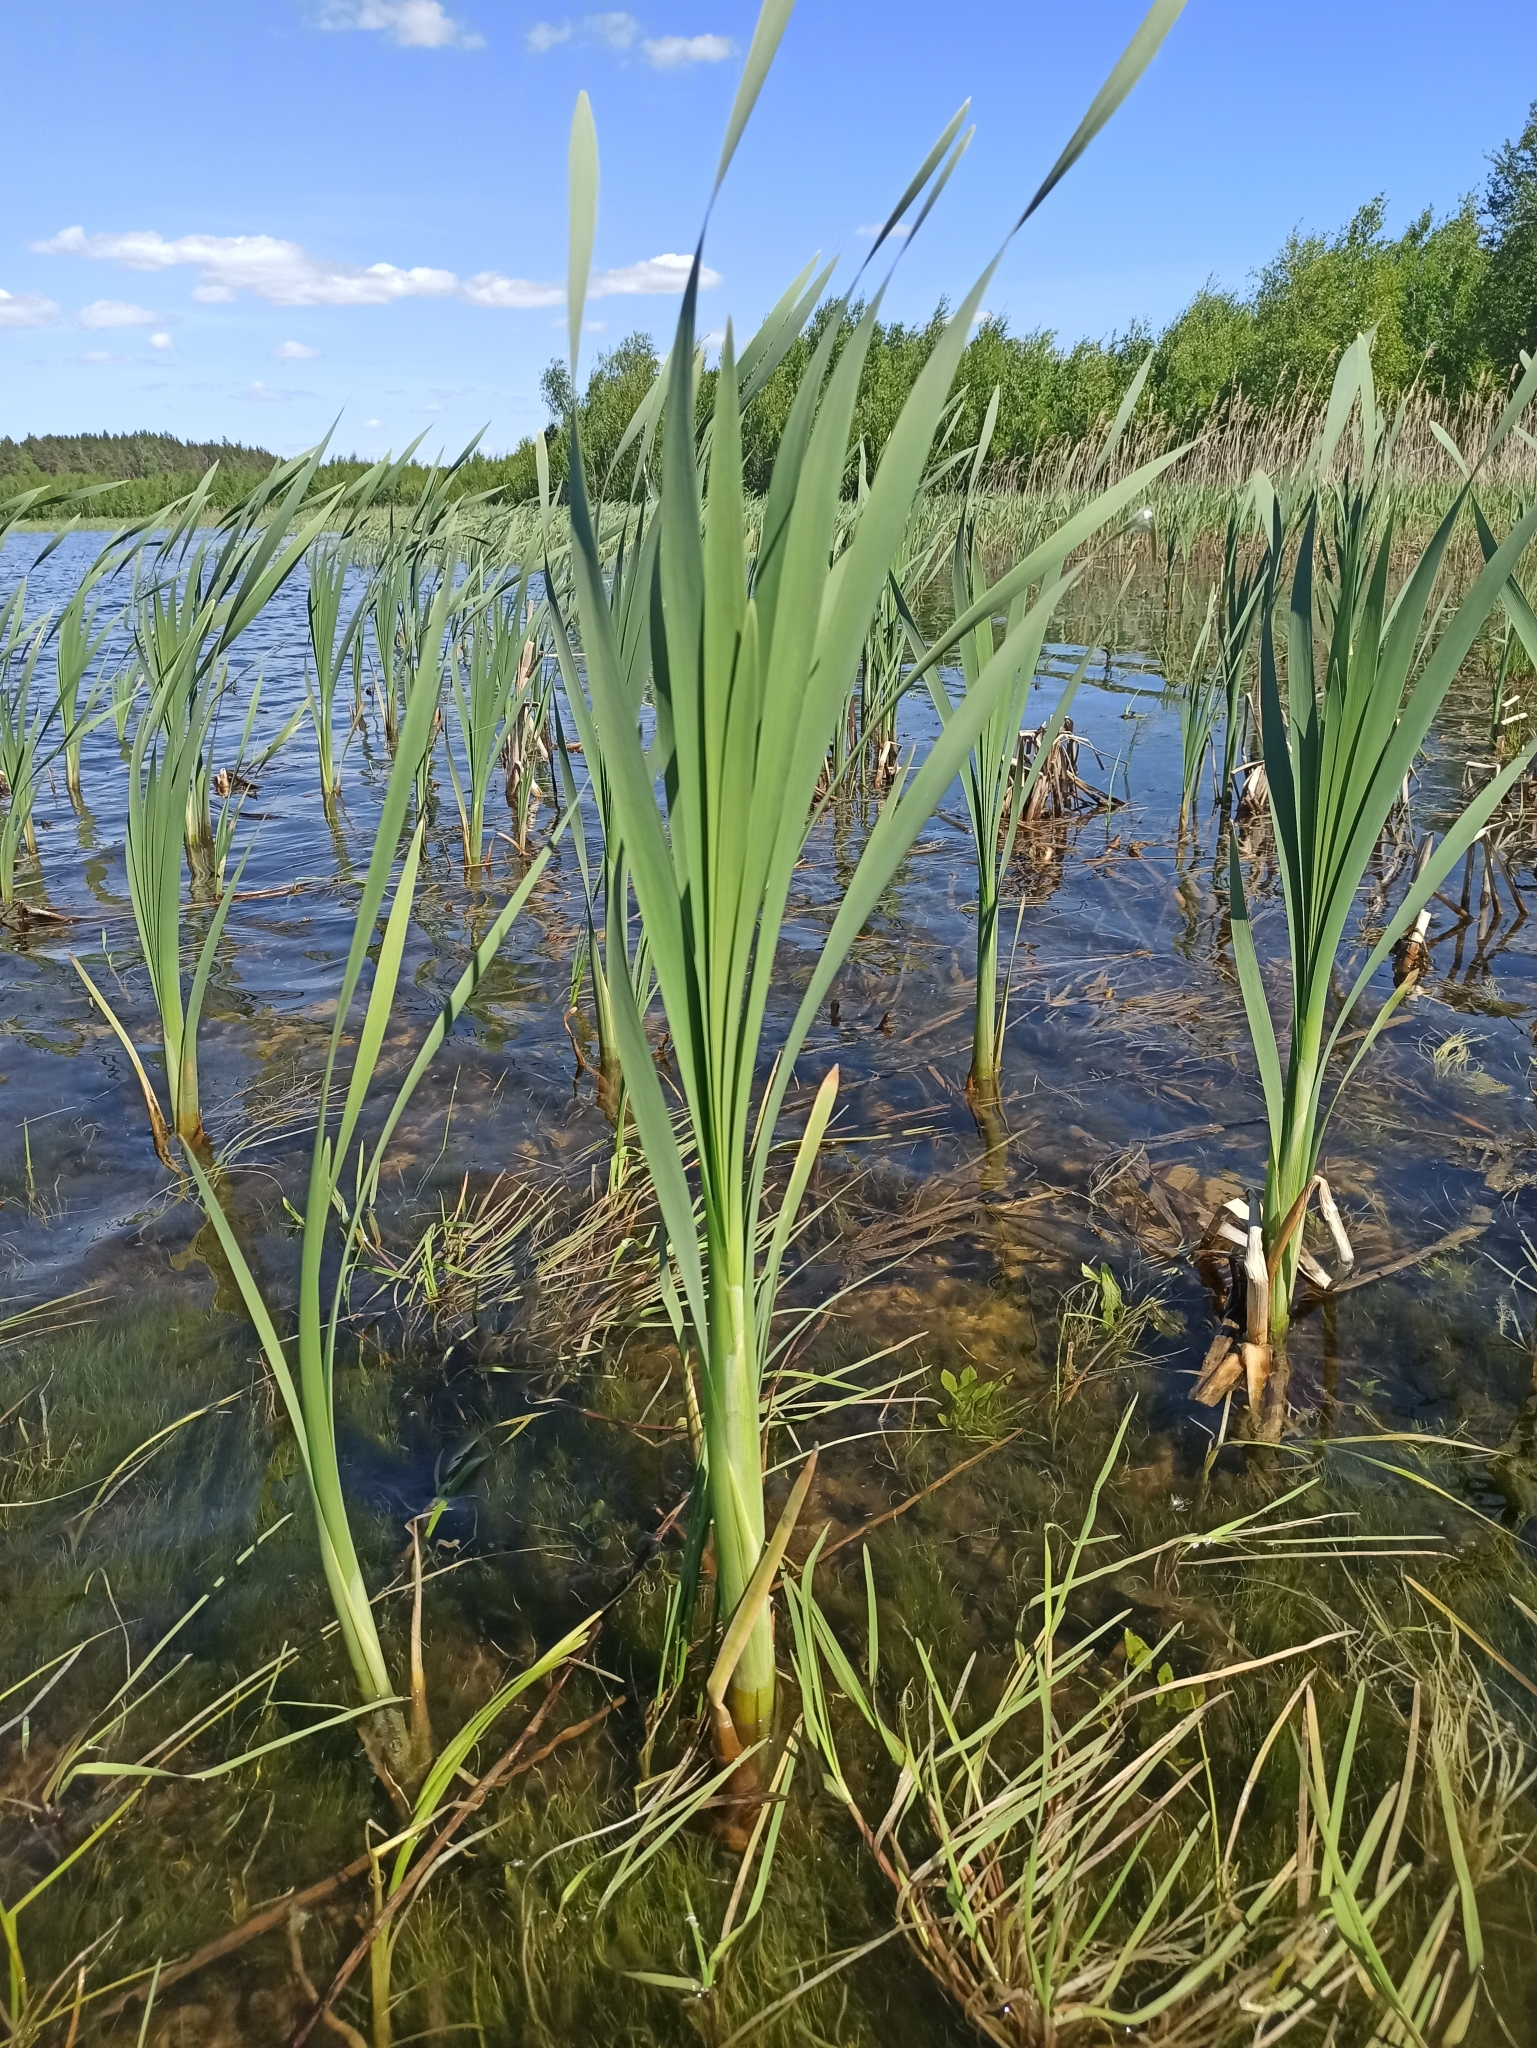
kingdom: Plantae
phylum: Tracheophyta
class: Liliopsida
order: Poales
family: Typhaceae
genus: Typha
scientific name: Typha latifolia
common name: Broadleaf cattail
